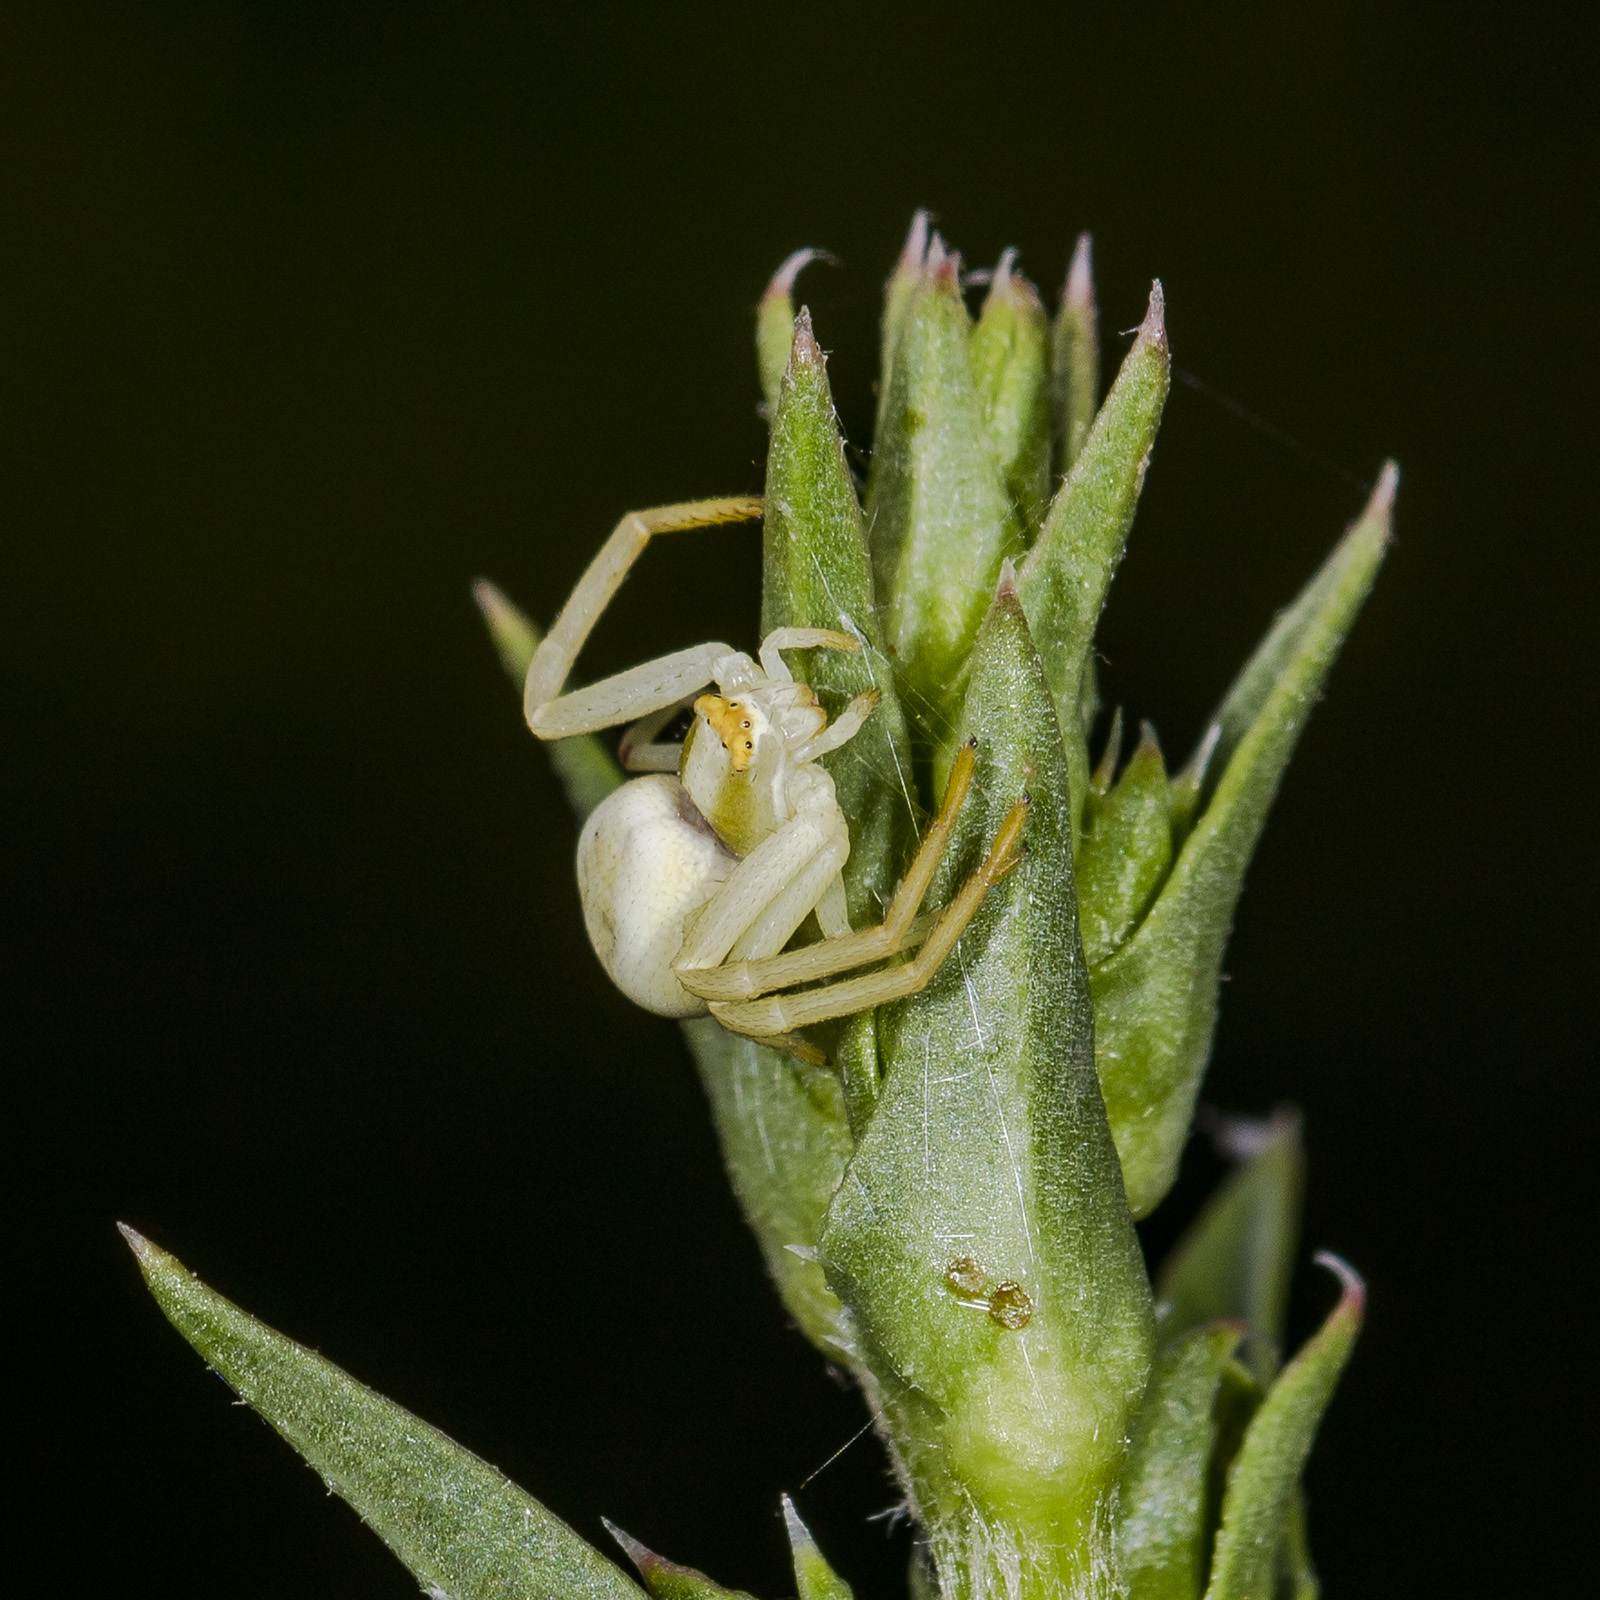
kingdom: Animalia
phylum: Arthropoda
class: Arachnida
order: Araneae
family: Thomisidae
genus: Misumena
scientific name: Misumena vatia
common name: Goldenrod crab spider
